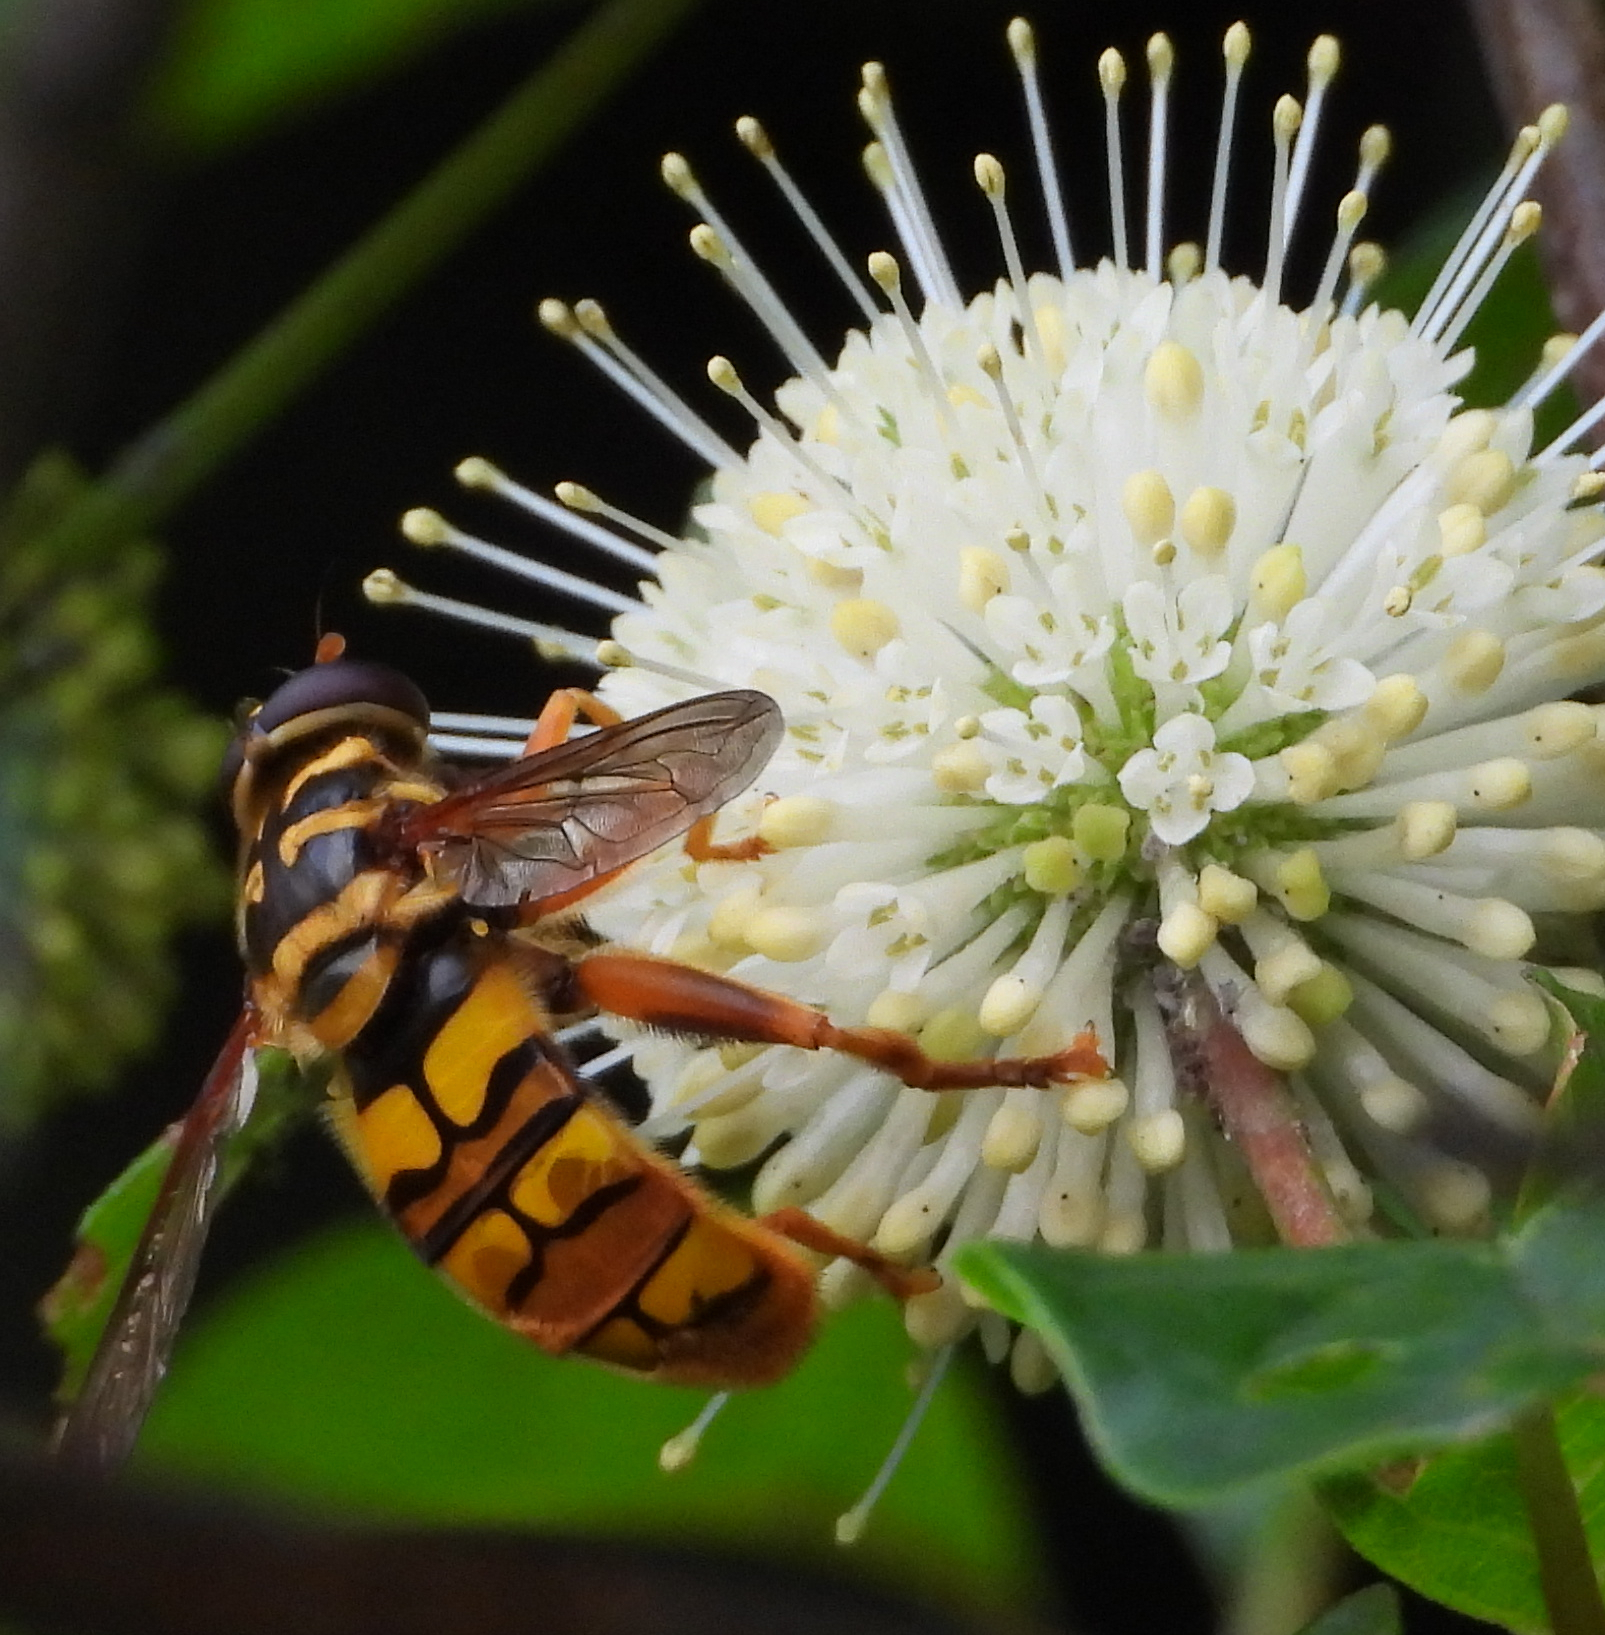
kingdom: Animalia
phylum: Arthropoda
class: Insecta
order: Diptera
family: Syrphidae
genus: Milesia
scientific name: Milesia virginiensis
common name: Virginia giant
